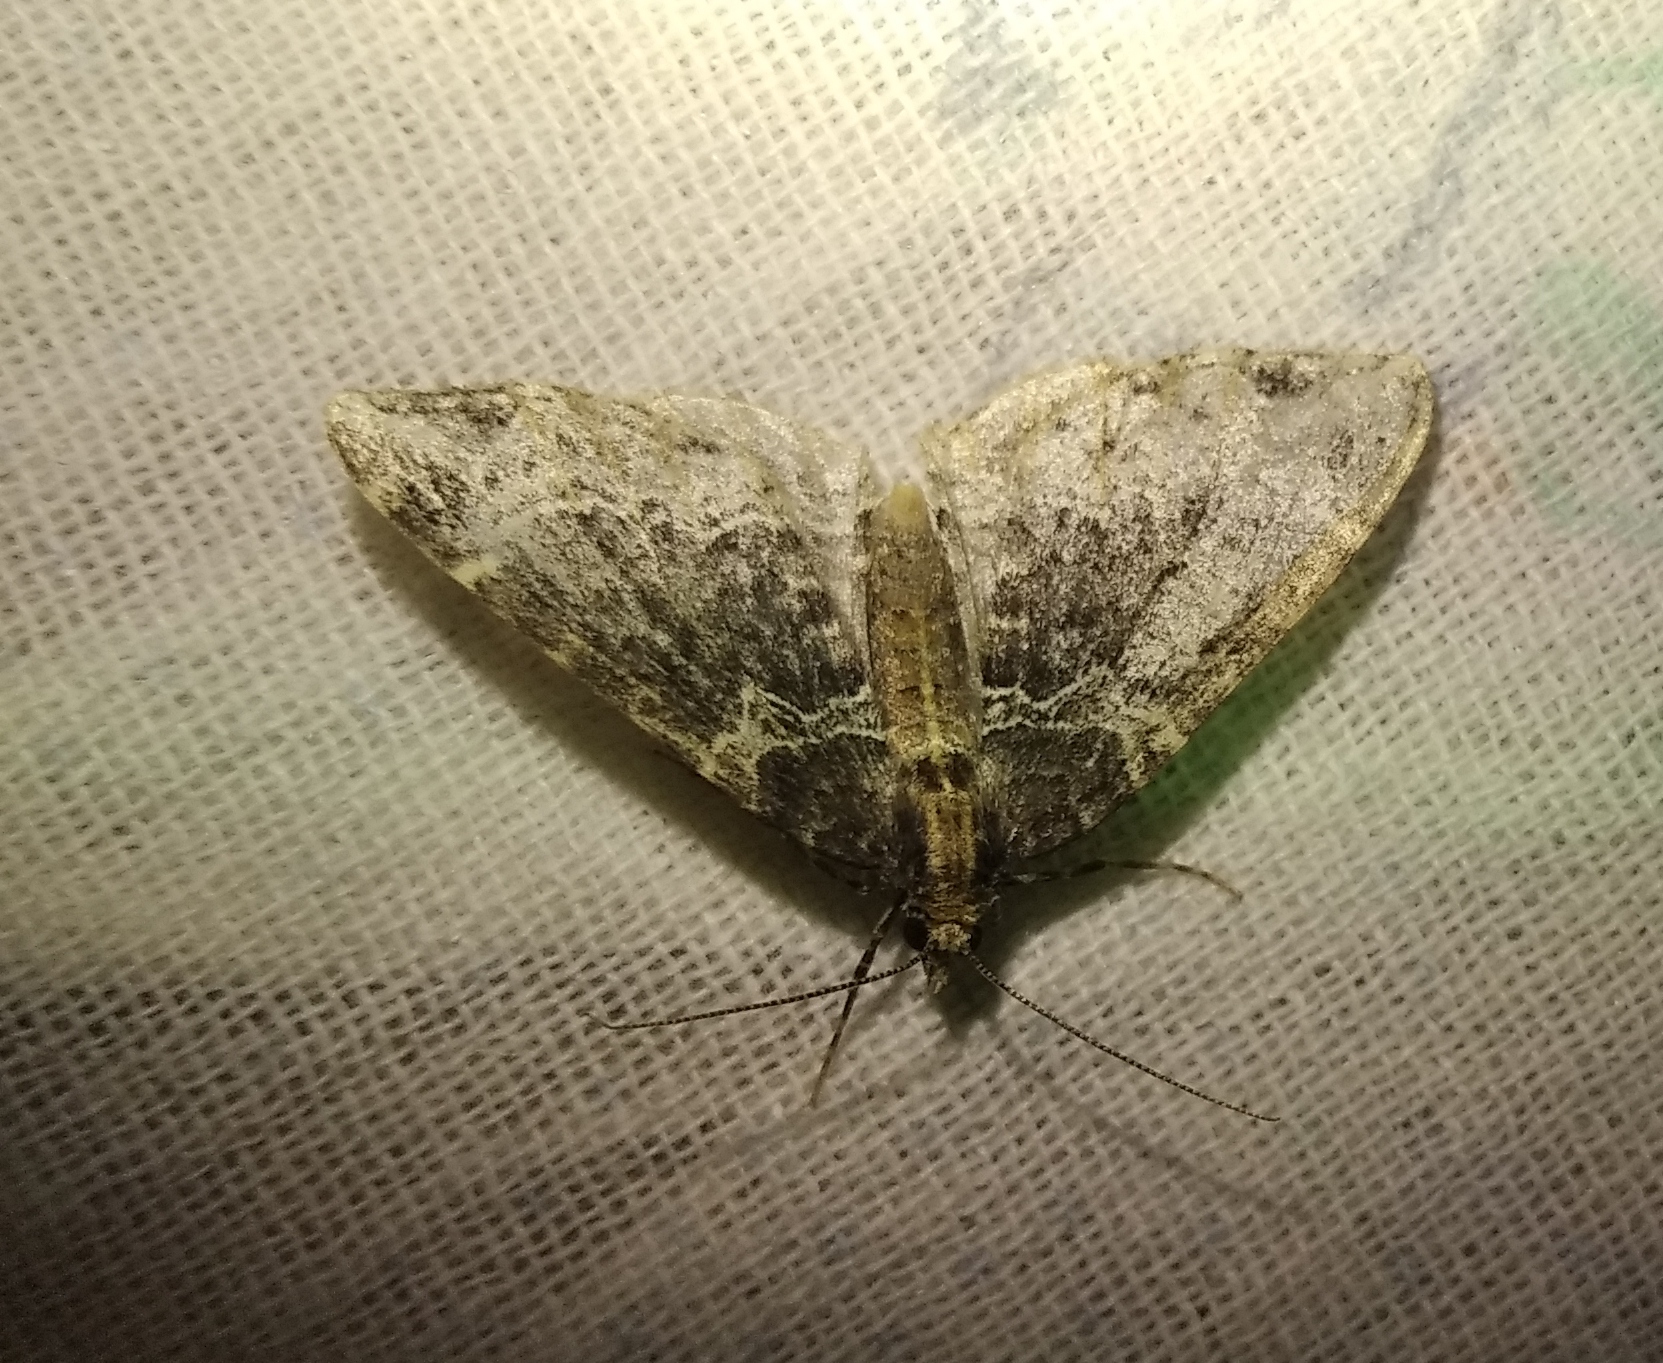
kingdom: Animalia
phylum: Arthropoda
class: Insecta
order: Lepidoptera
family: Geometridae
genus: Ecliptopera
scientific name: Ecliptopera silaceata
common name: Small phoenix
